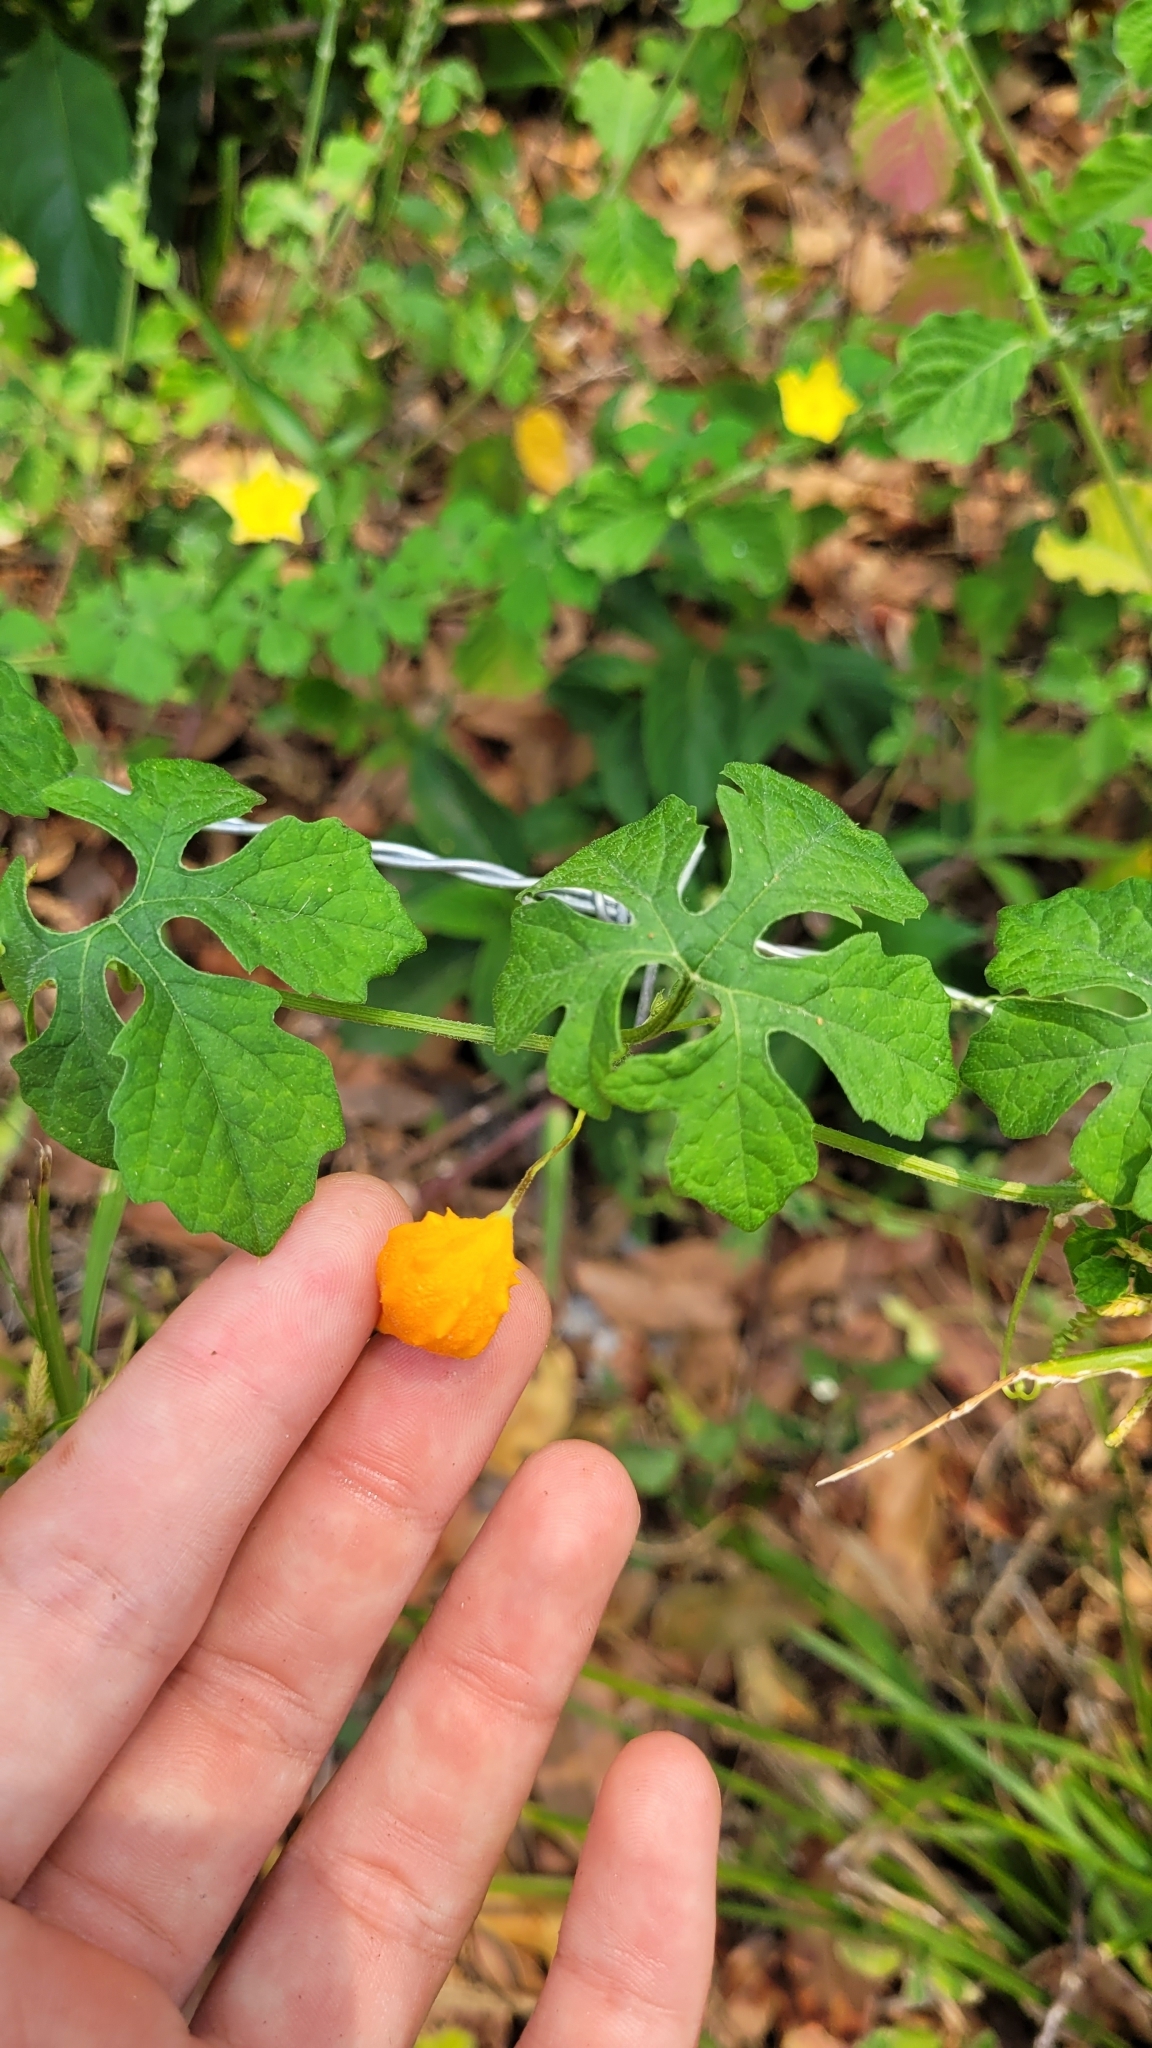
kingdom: Plantae
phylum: Tracheophyta
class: Magnoliopsida
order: Cucurbitales
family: Cucurbitaceae
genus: Momordica
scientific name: Momordica charantia
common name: Balsampear
